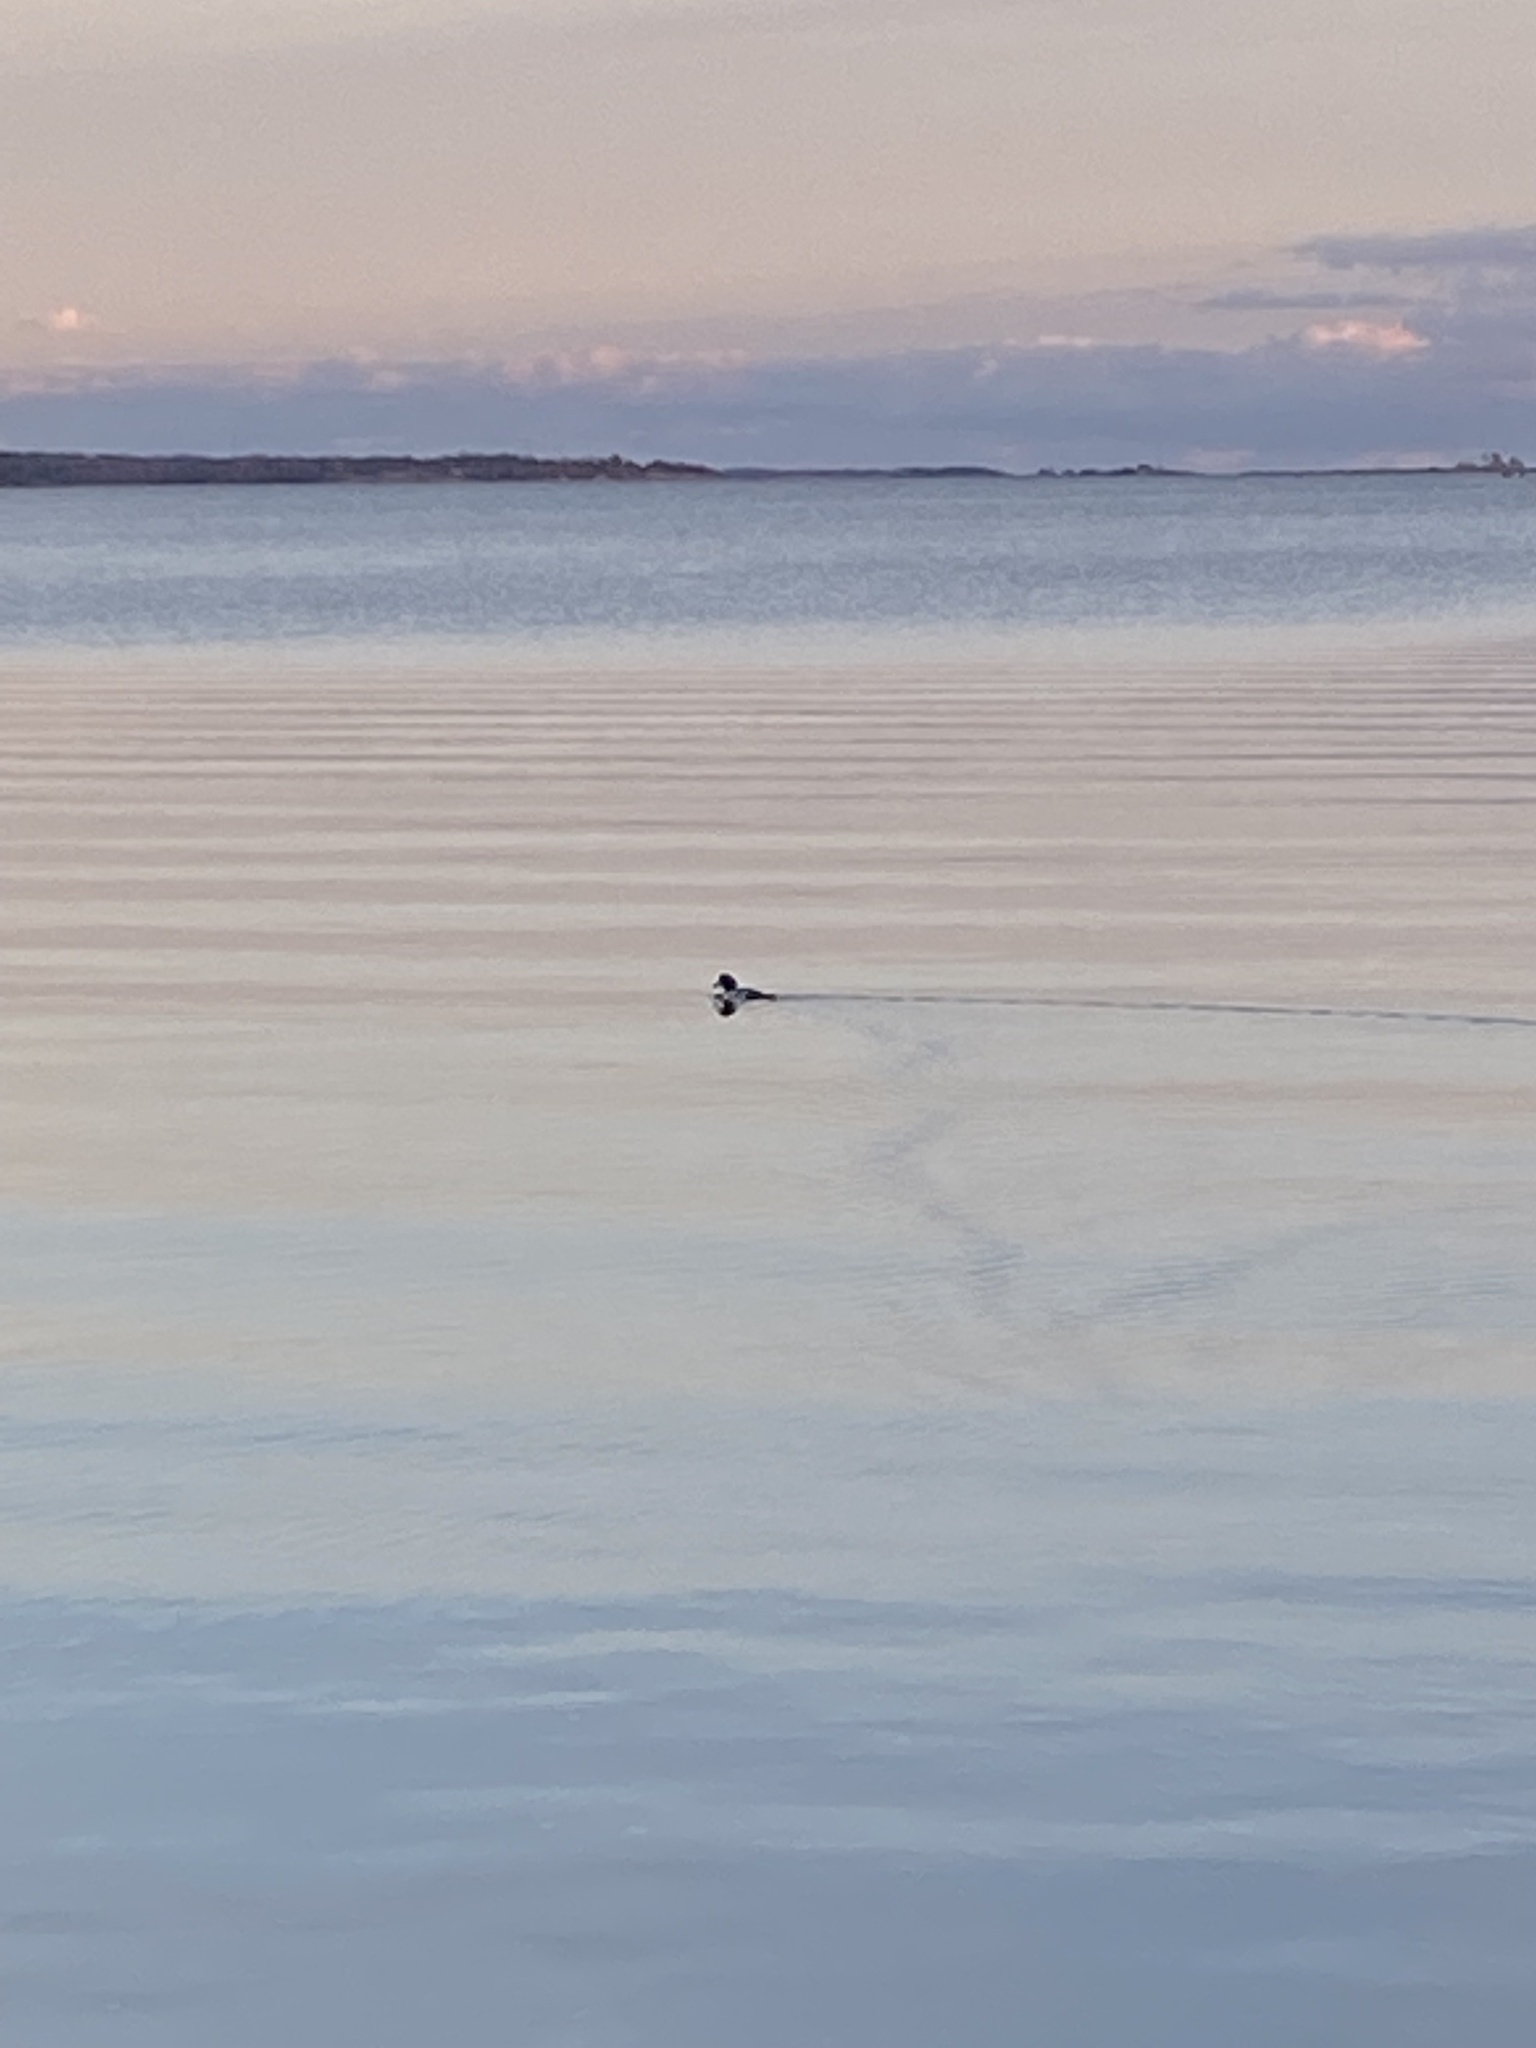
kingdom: Animalia
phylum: Chordata
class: Aves
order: Anseriformes
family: Anatidae
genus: Bucephala
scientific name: Bucephala clangula
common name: Common goldeneye
